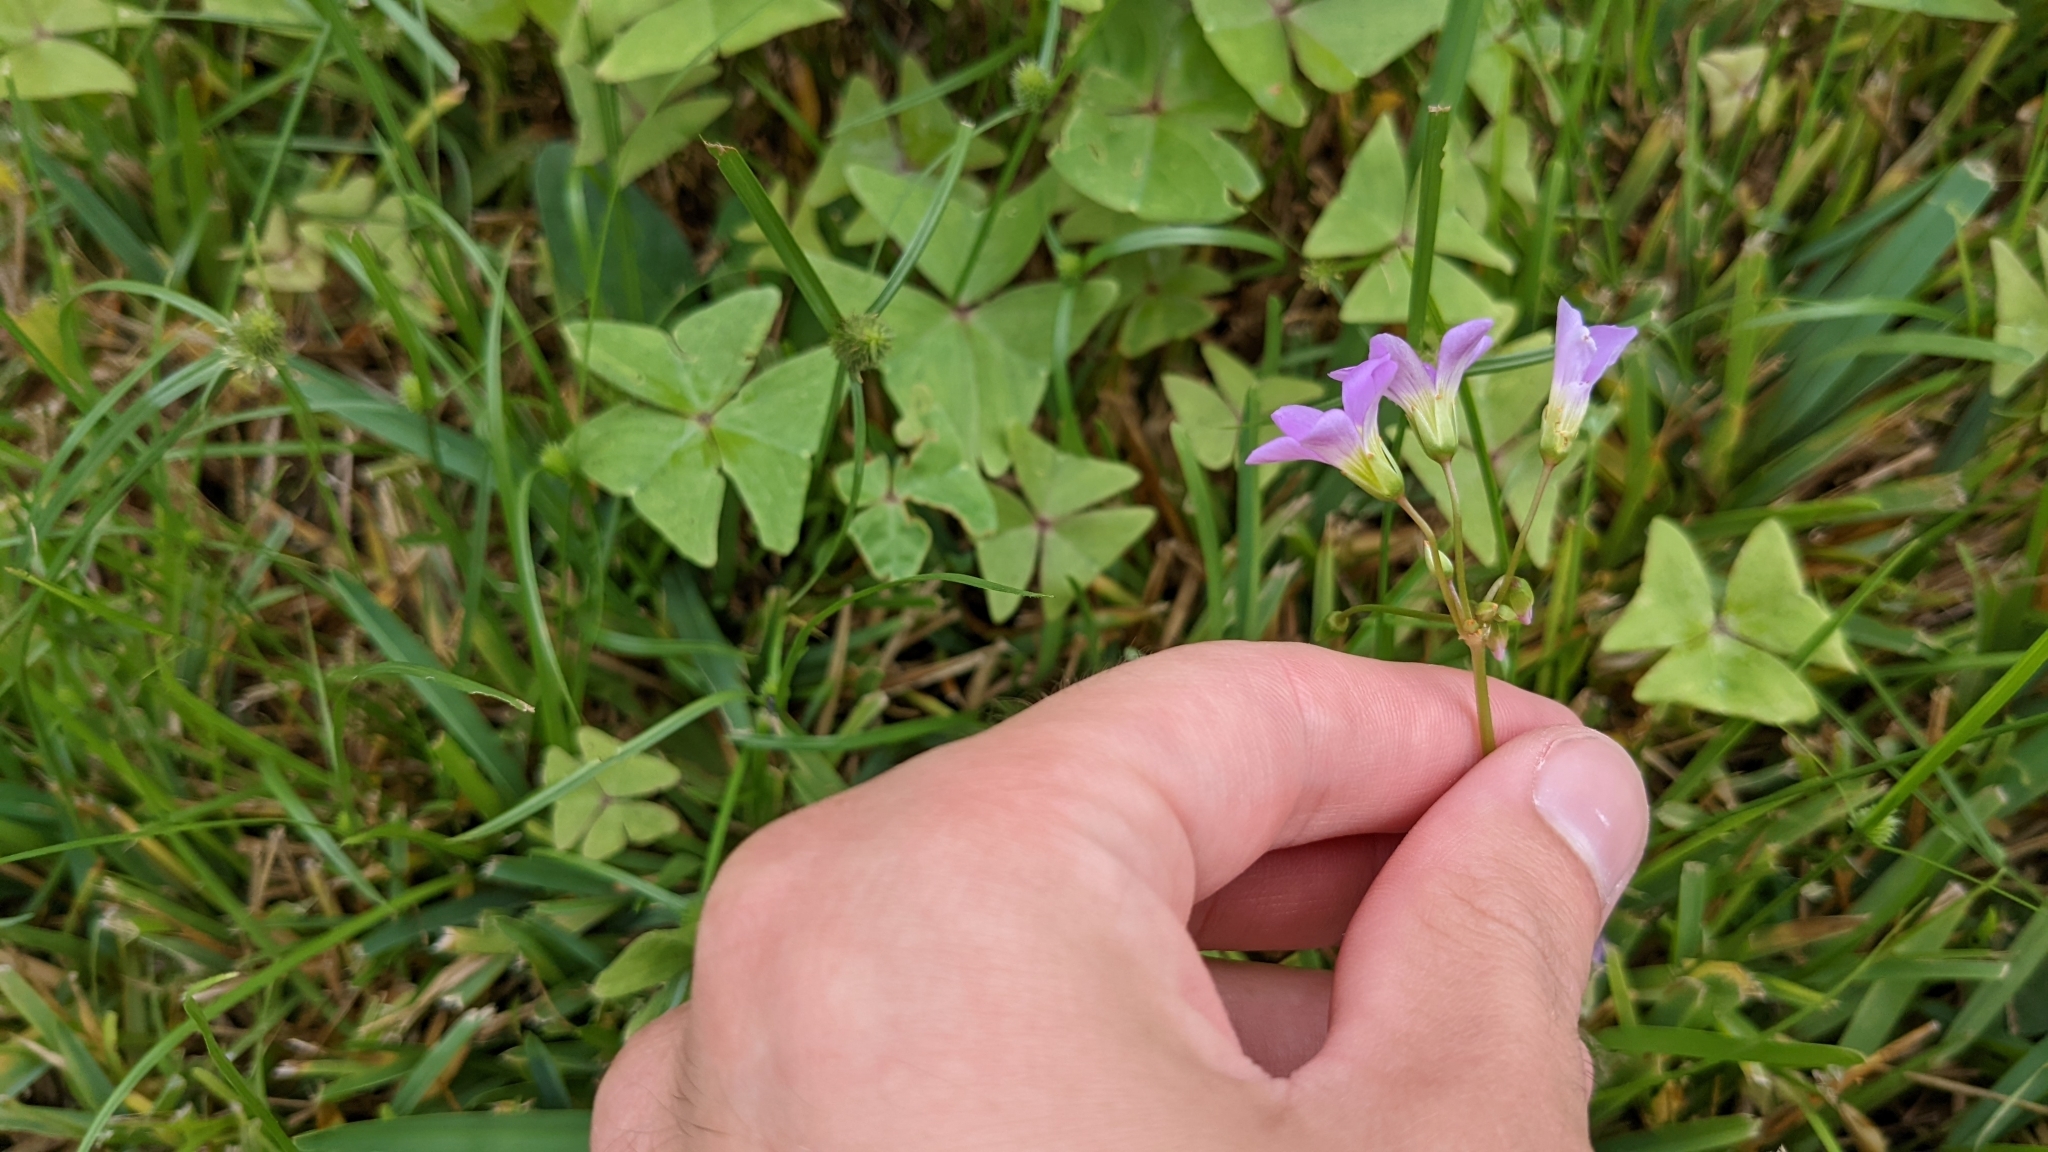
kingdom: Plantae
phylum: Tracheophyta
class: Magnoliopsida
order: Oxalidales
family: Oxalidaceae
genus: Oxalis
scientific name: Oxalis intermedia
